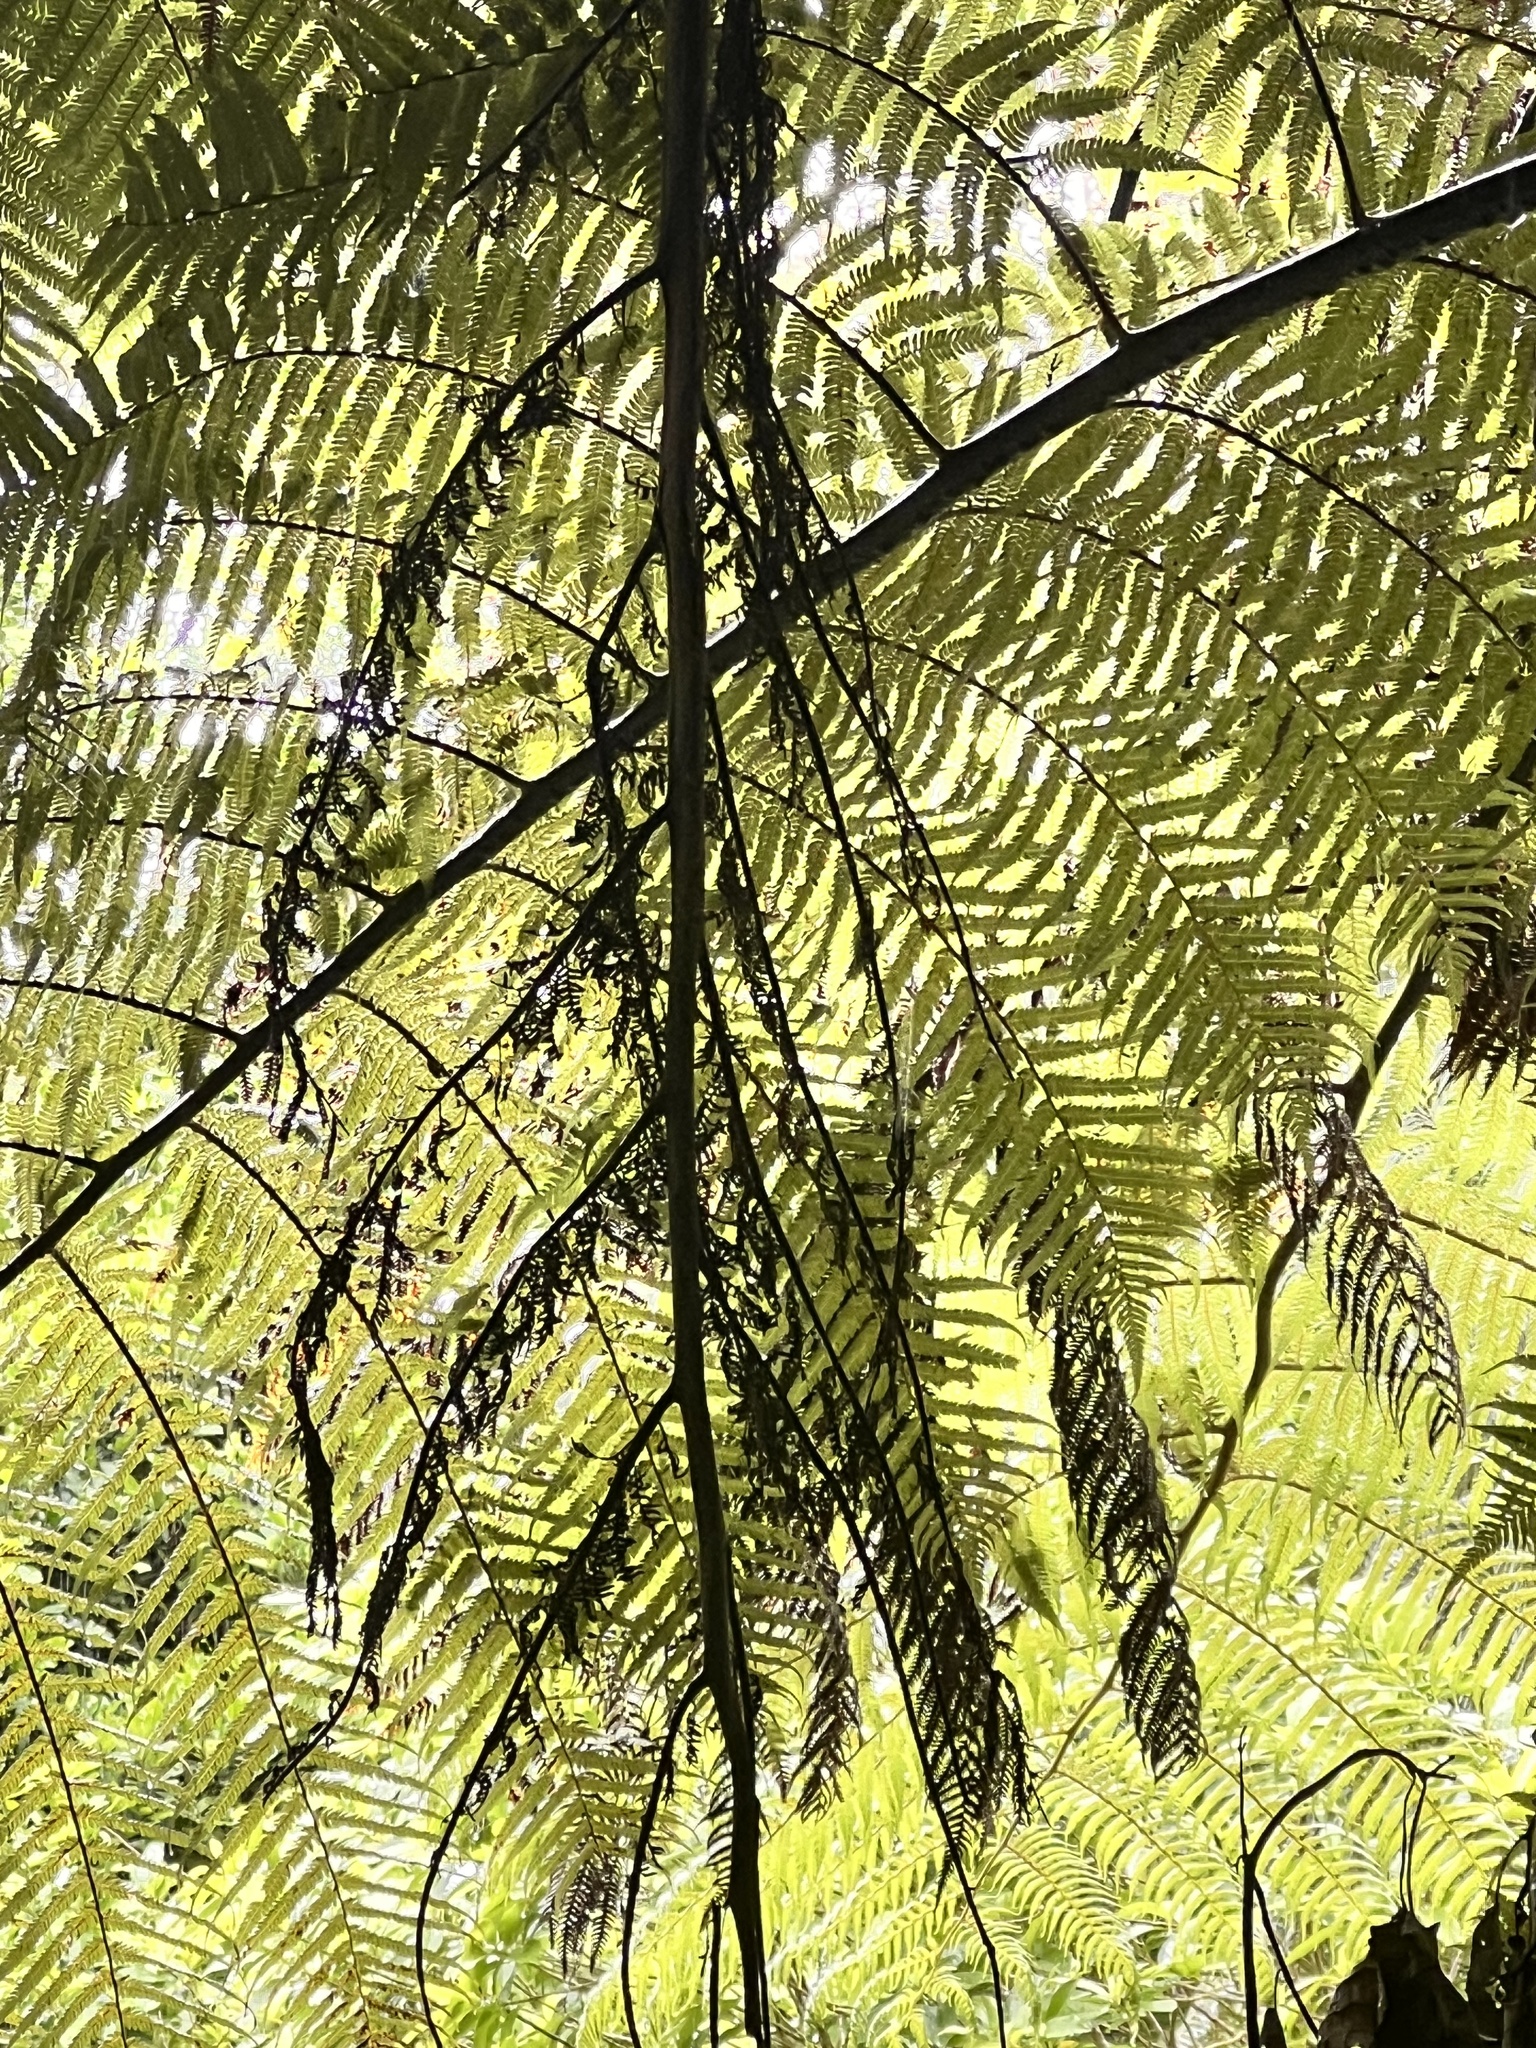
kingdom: Plantae
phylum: Tracheophyta
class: Polypodiopsida
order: Cyatheales
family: Cyatheaceae
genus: Sphaeropteris
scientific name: Sphaeropteris medullaris
